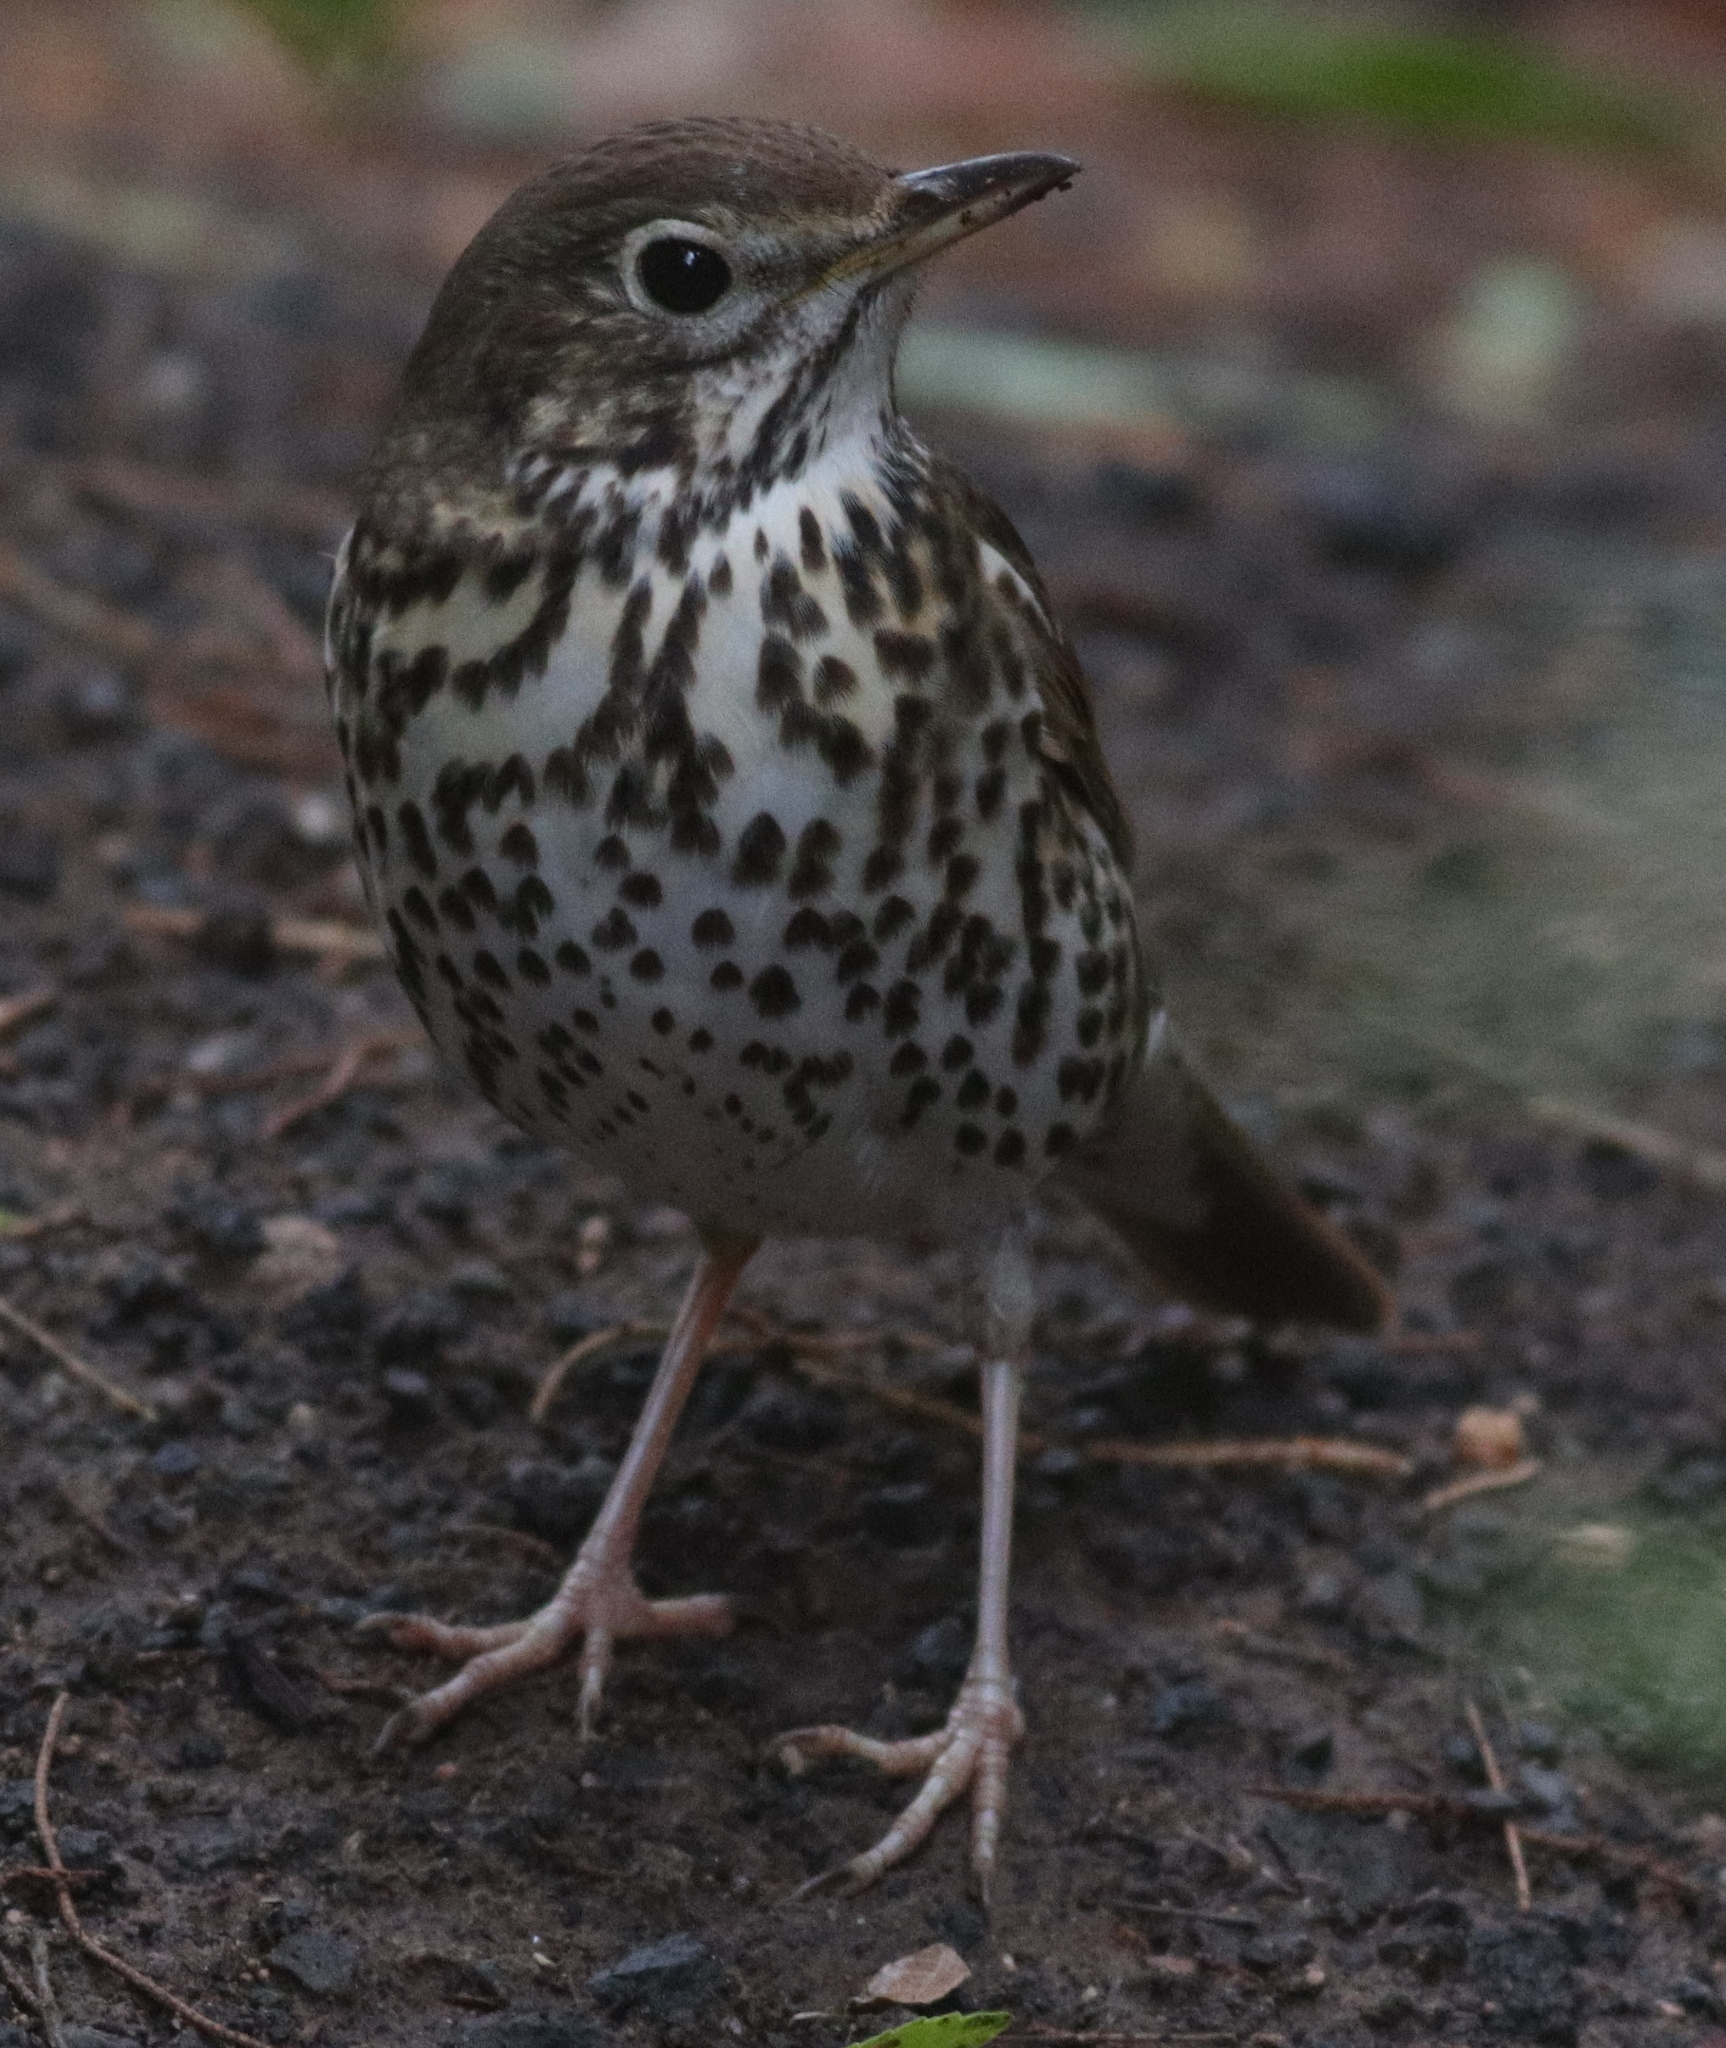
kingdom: Animalia
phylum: Chordata
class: Aves
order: Passeriformes
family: Turdidae
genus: Turdus
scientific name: Turdus philomelos
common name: Song thrush
